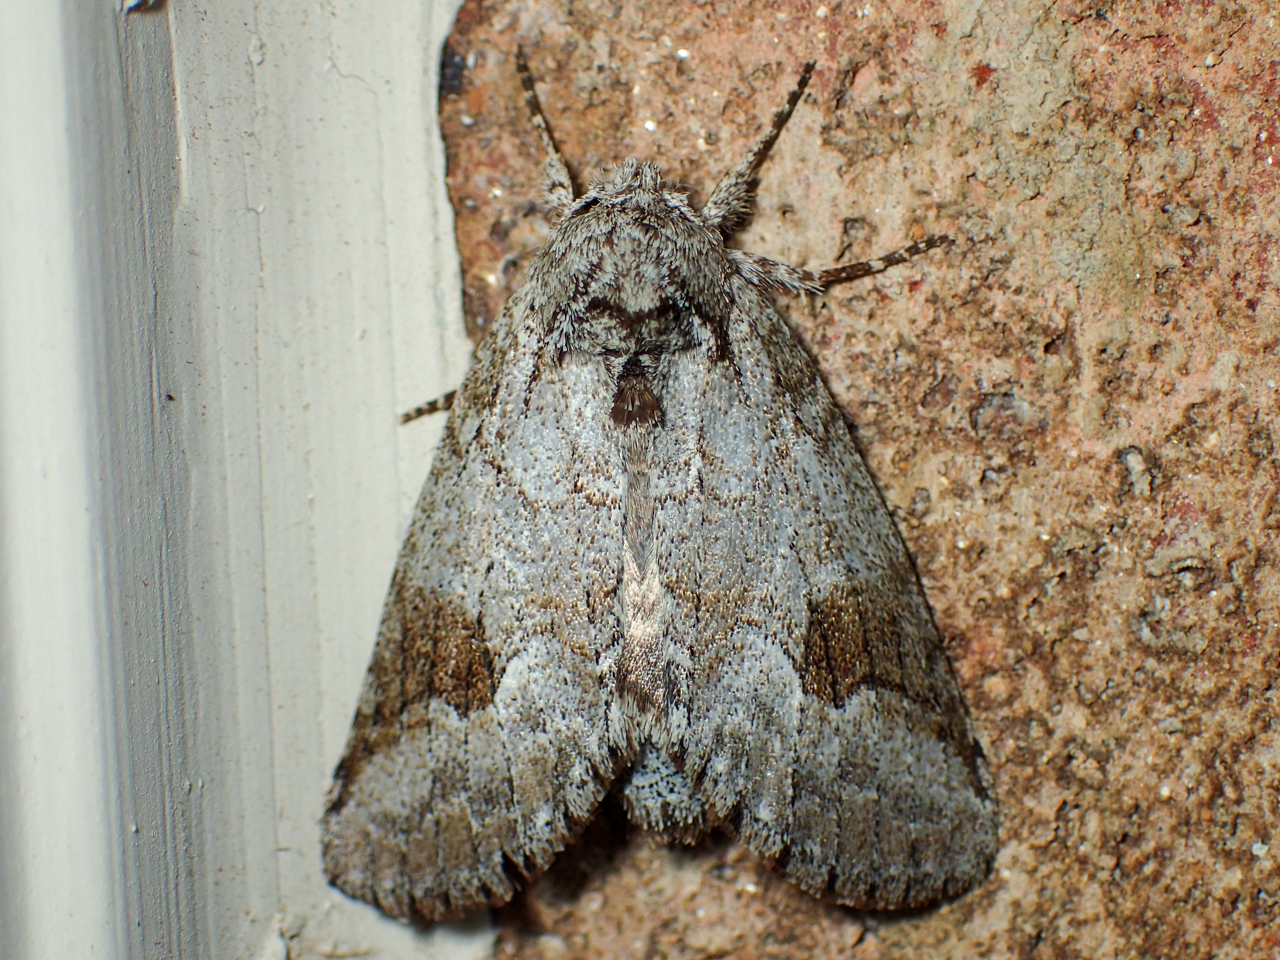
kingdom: Animalia
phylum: Arthropoda
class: Insecta
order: Lepidoptera
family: Notodontidae
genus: Lochmaeus
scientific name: Lochmaeus bilineata
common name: Double-lined prominent
